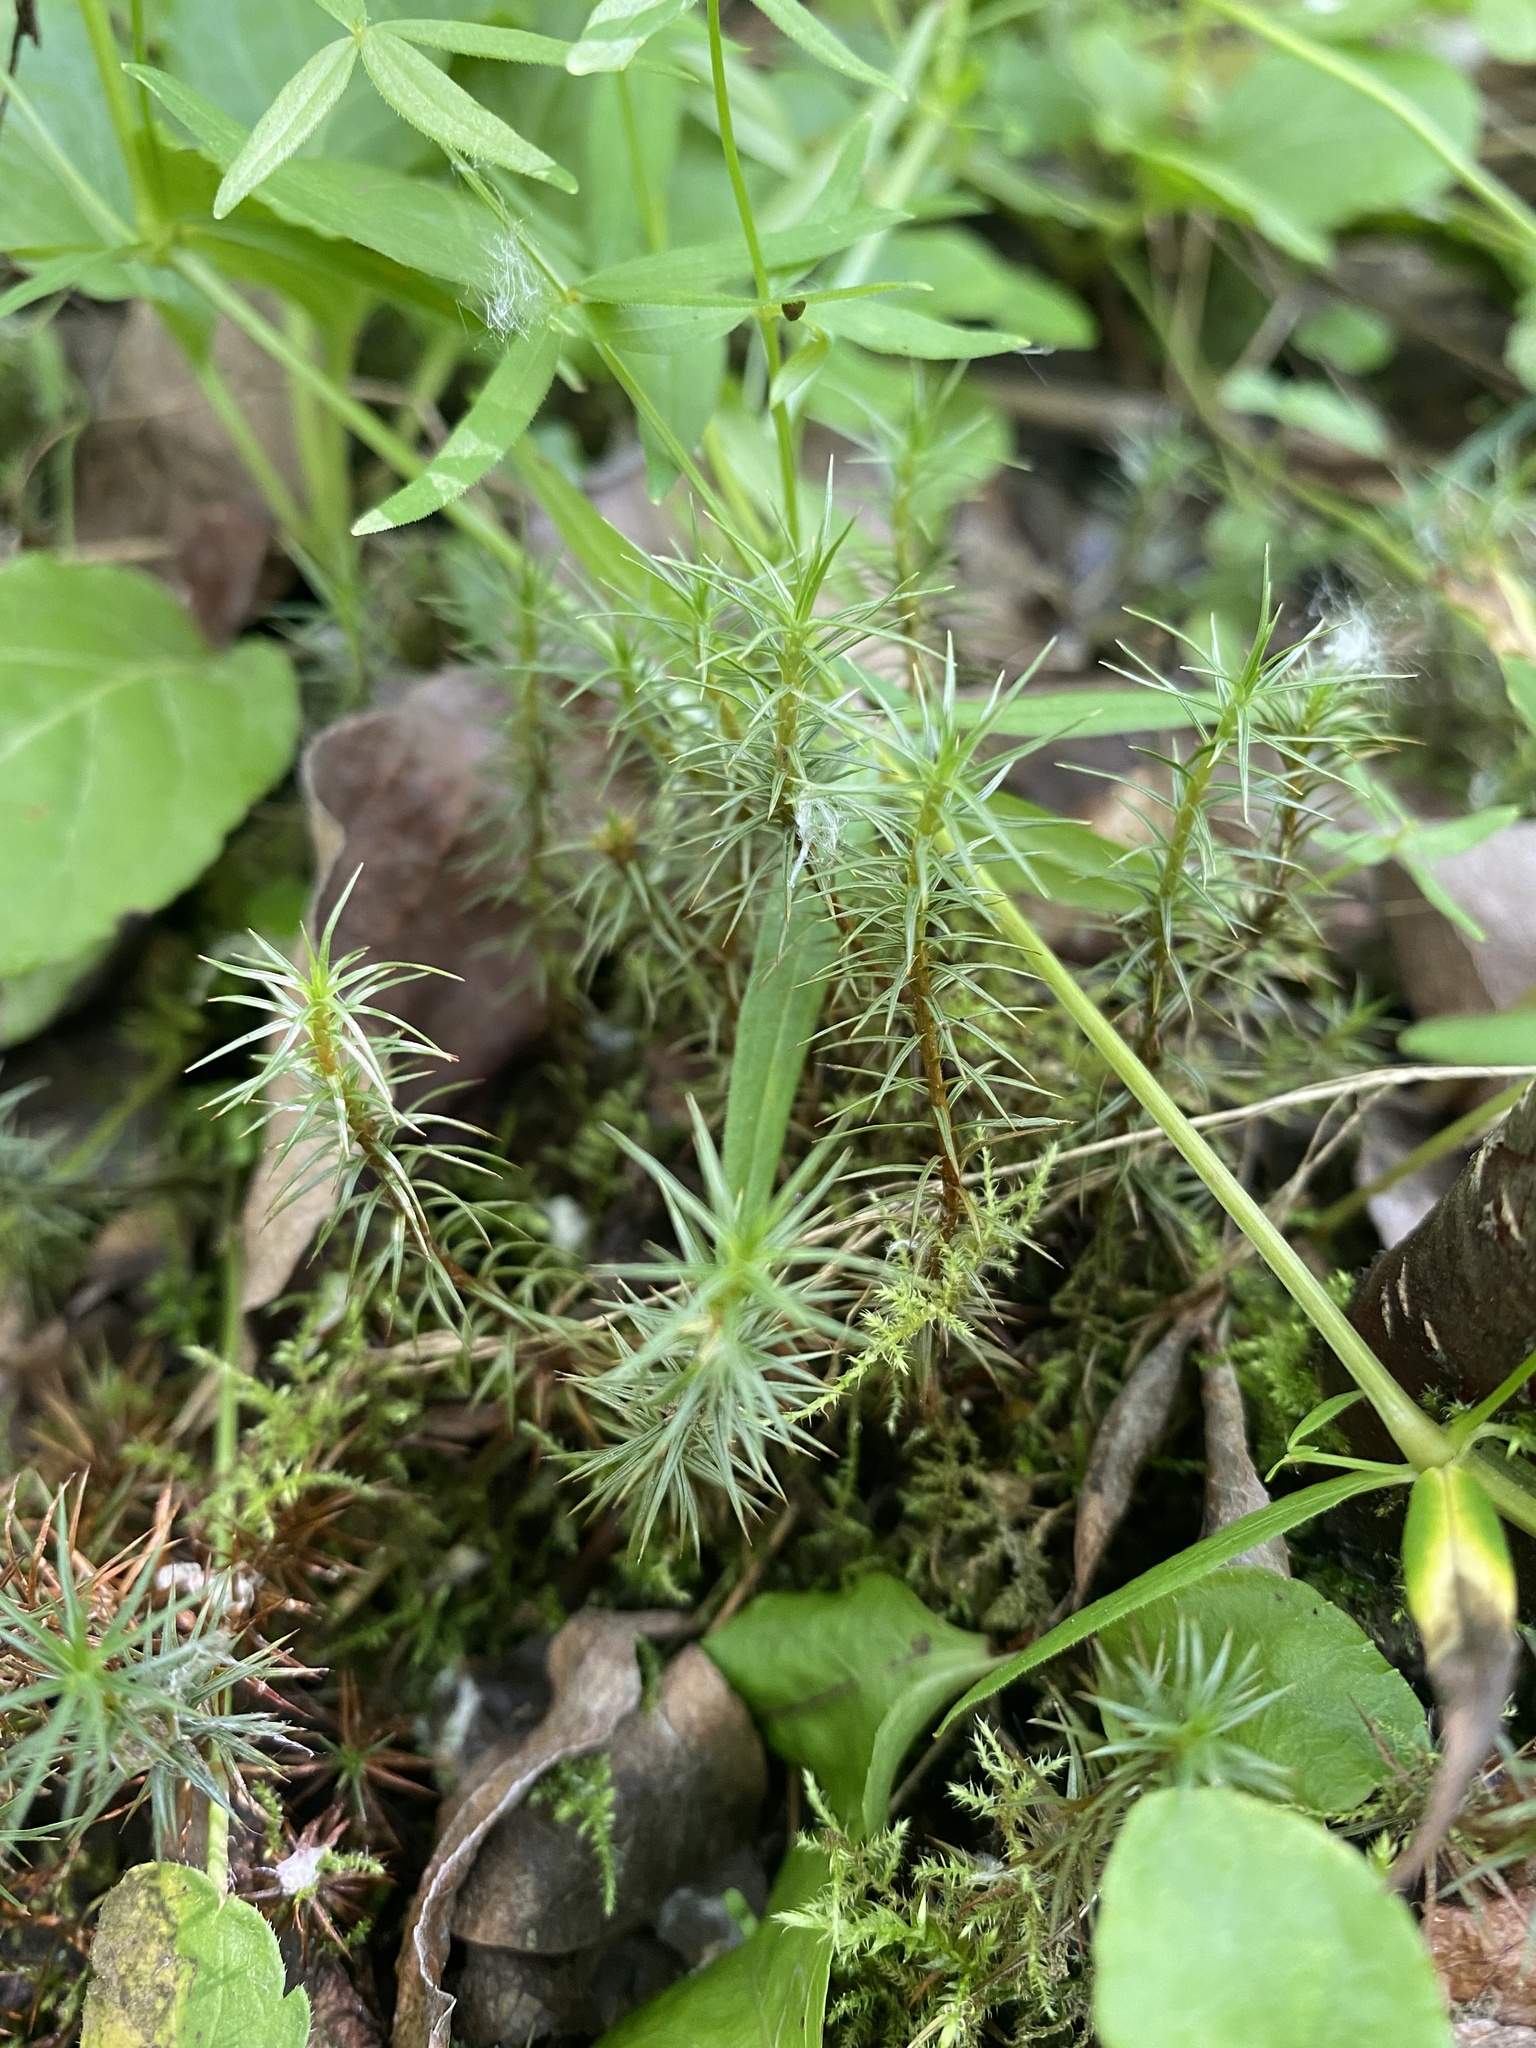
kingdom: Plantae
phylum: Bryophyta
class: Polytrichopsida
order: Polytrichales
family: Polytrichaceae
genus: Polytrichum
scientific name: Polytrichum commune
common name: Common haircap
